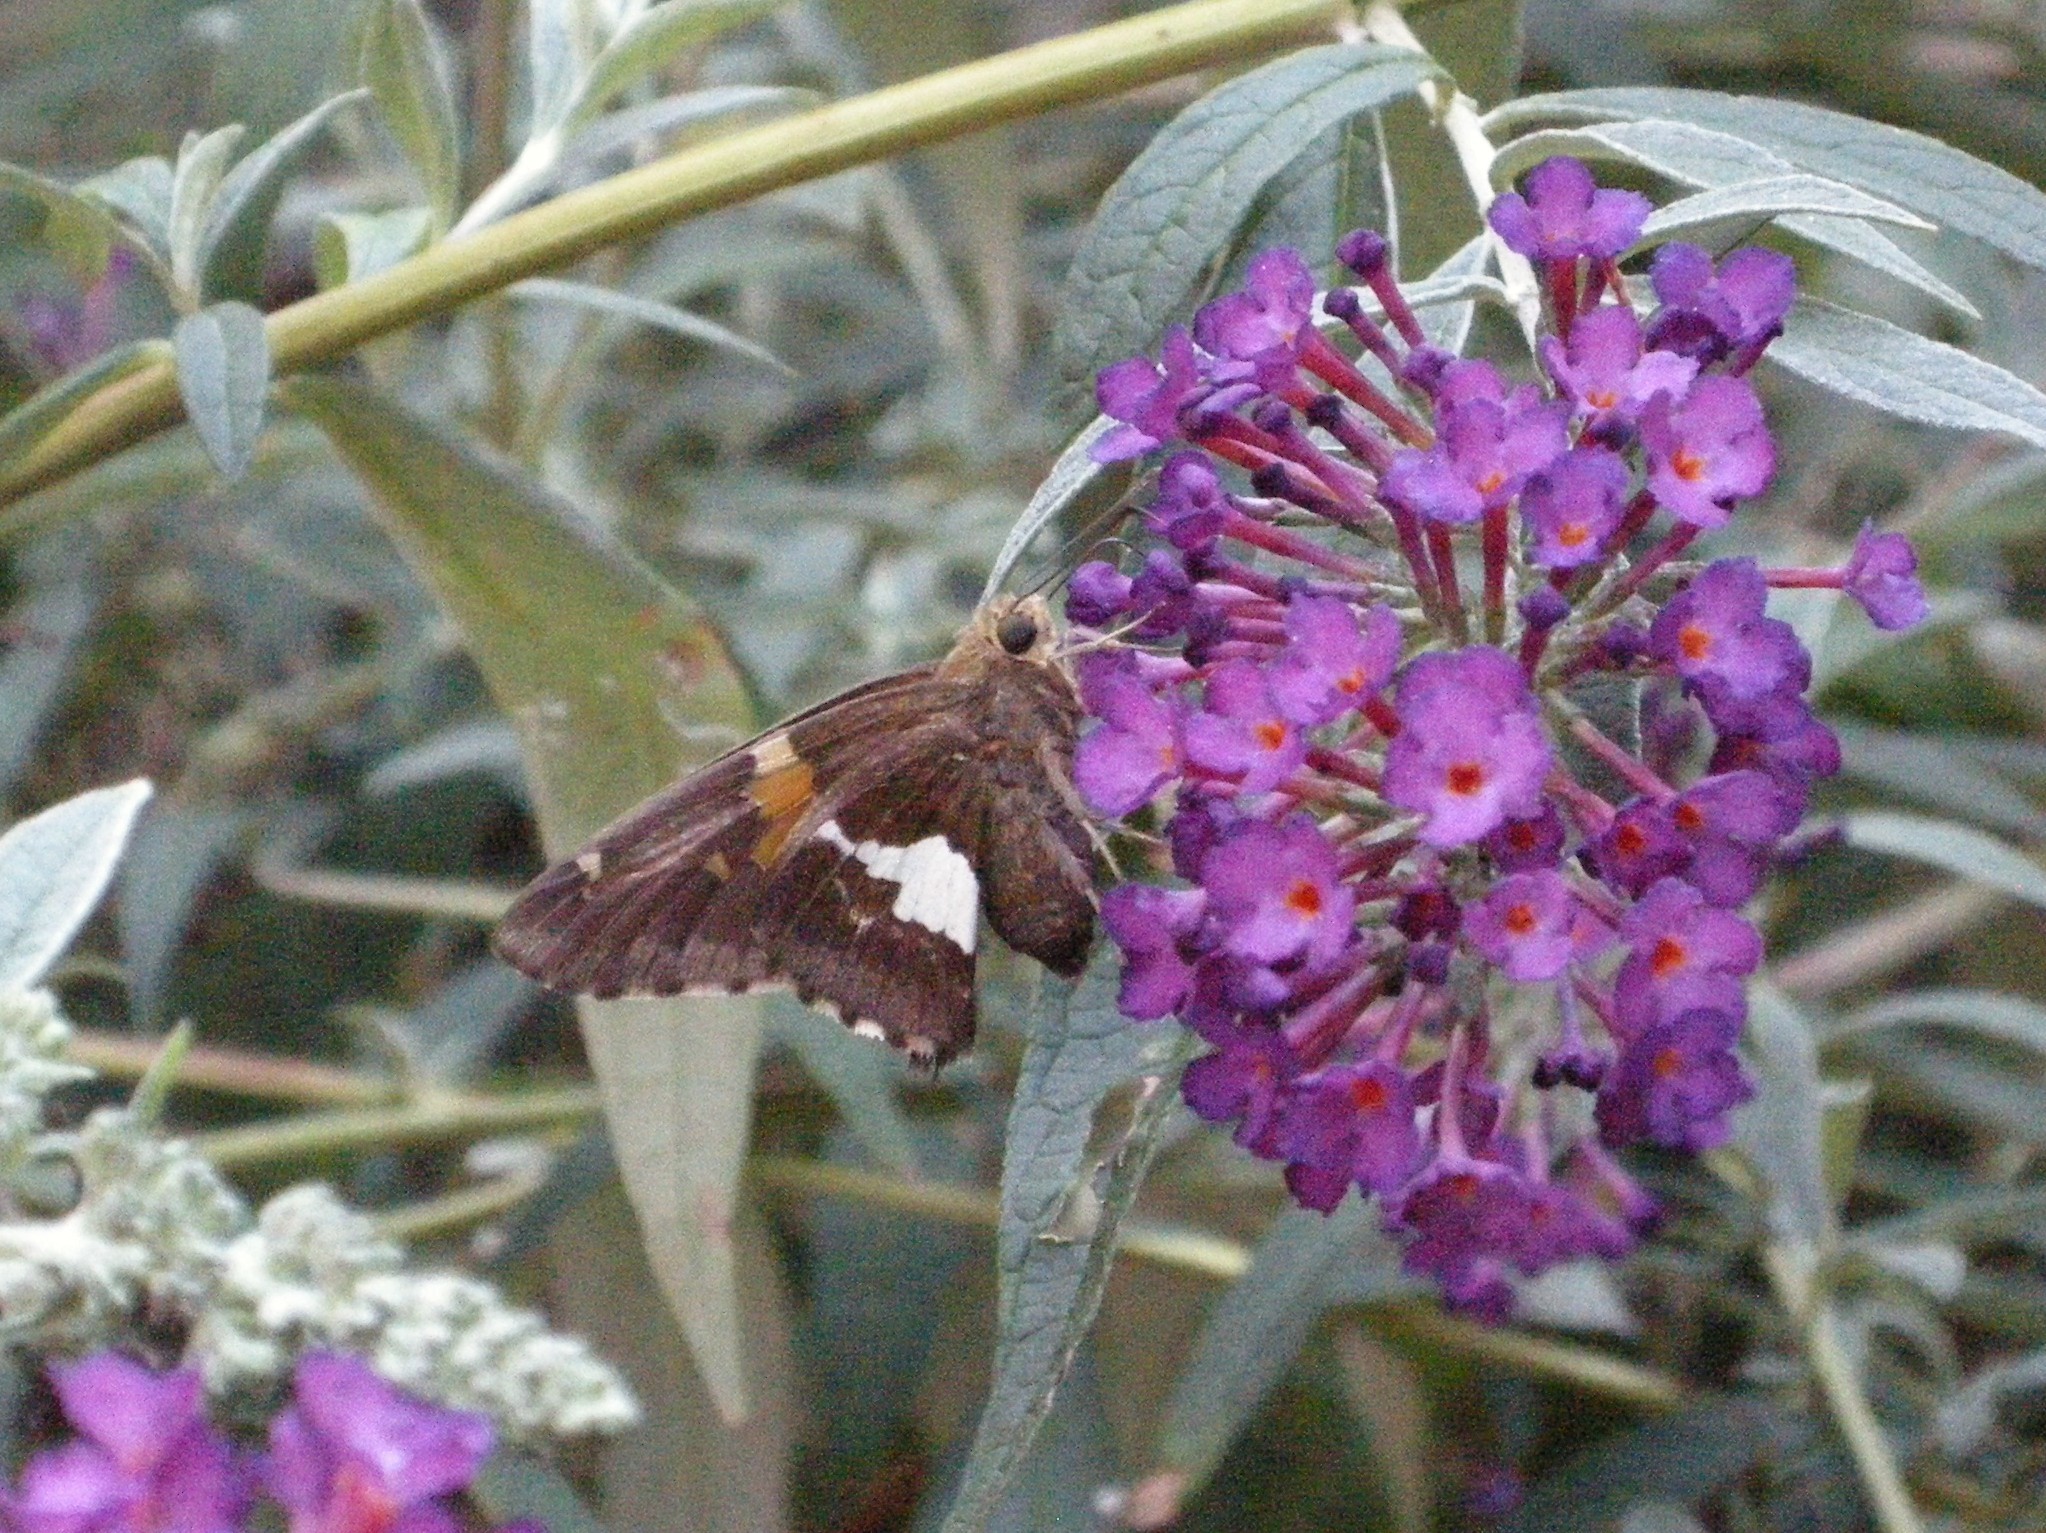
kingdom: Animalia
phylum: Arthropoda
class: Insecta
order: Lepidoptera
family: Hesperiidae
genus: Epargyreus
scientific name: Epargyreus clarus
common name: Silver-spotted skipper
